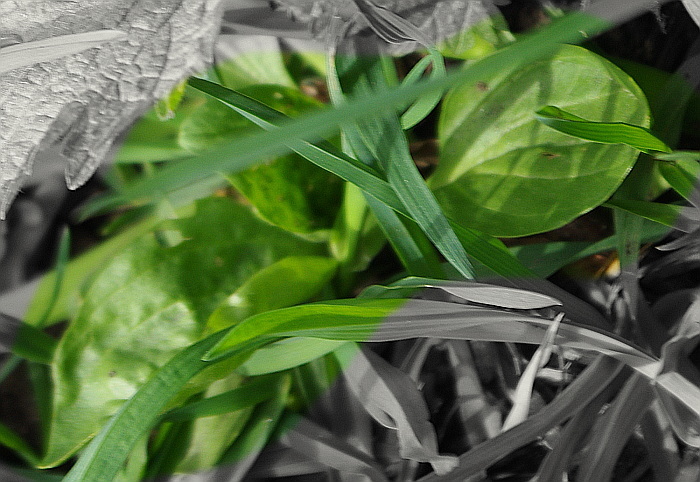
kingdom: Plantae
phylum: Tracheophyta
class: Magnoliopsida
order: Lamiales
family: Plantaginaceae
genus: Plantago
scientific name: Plantago major
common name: Common plantain
